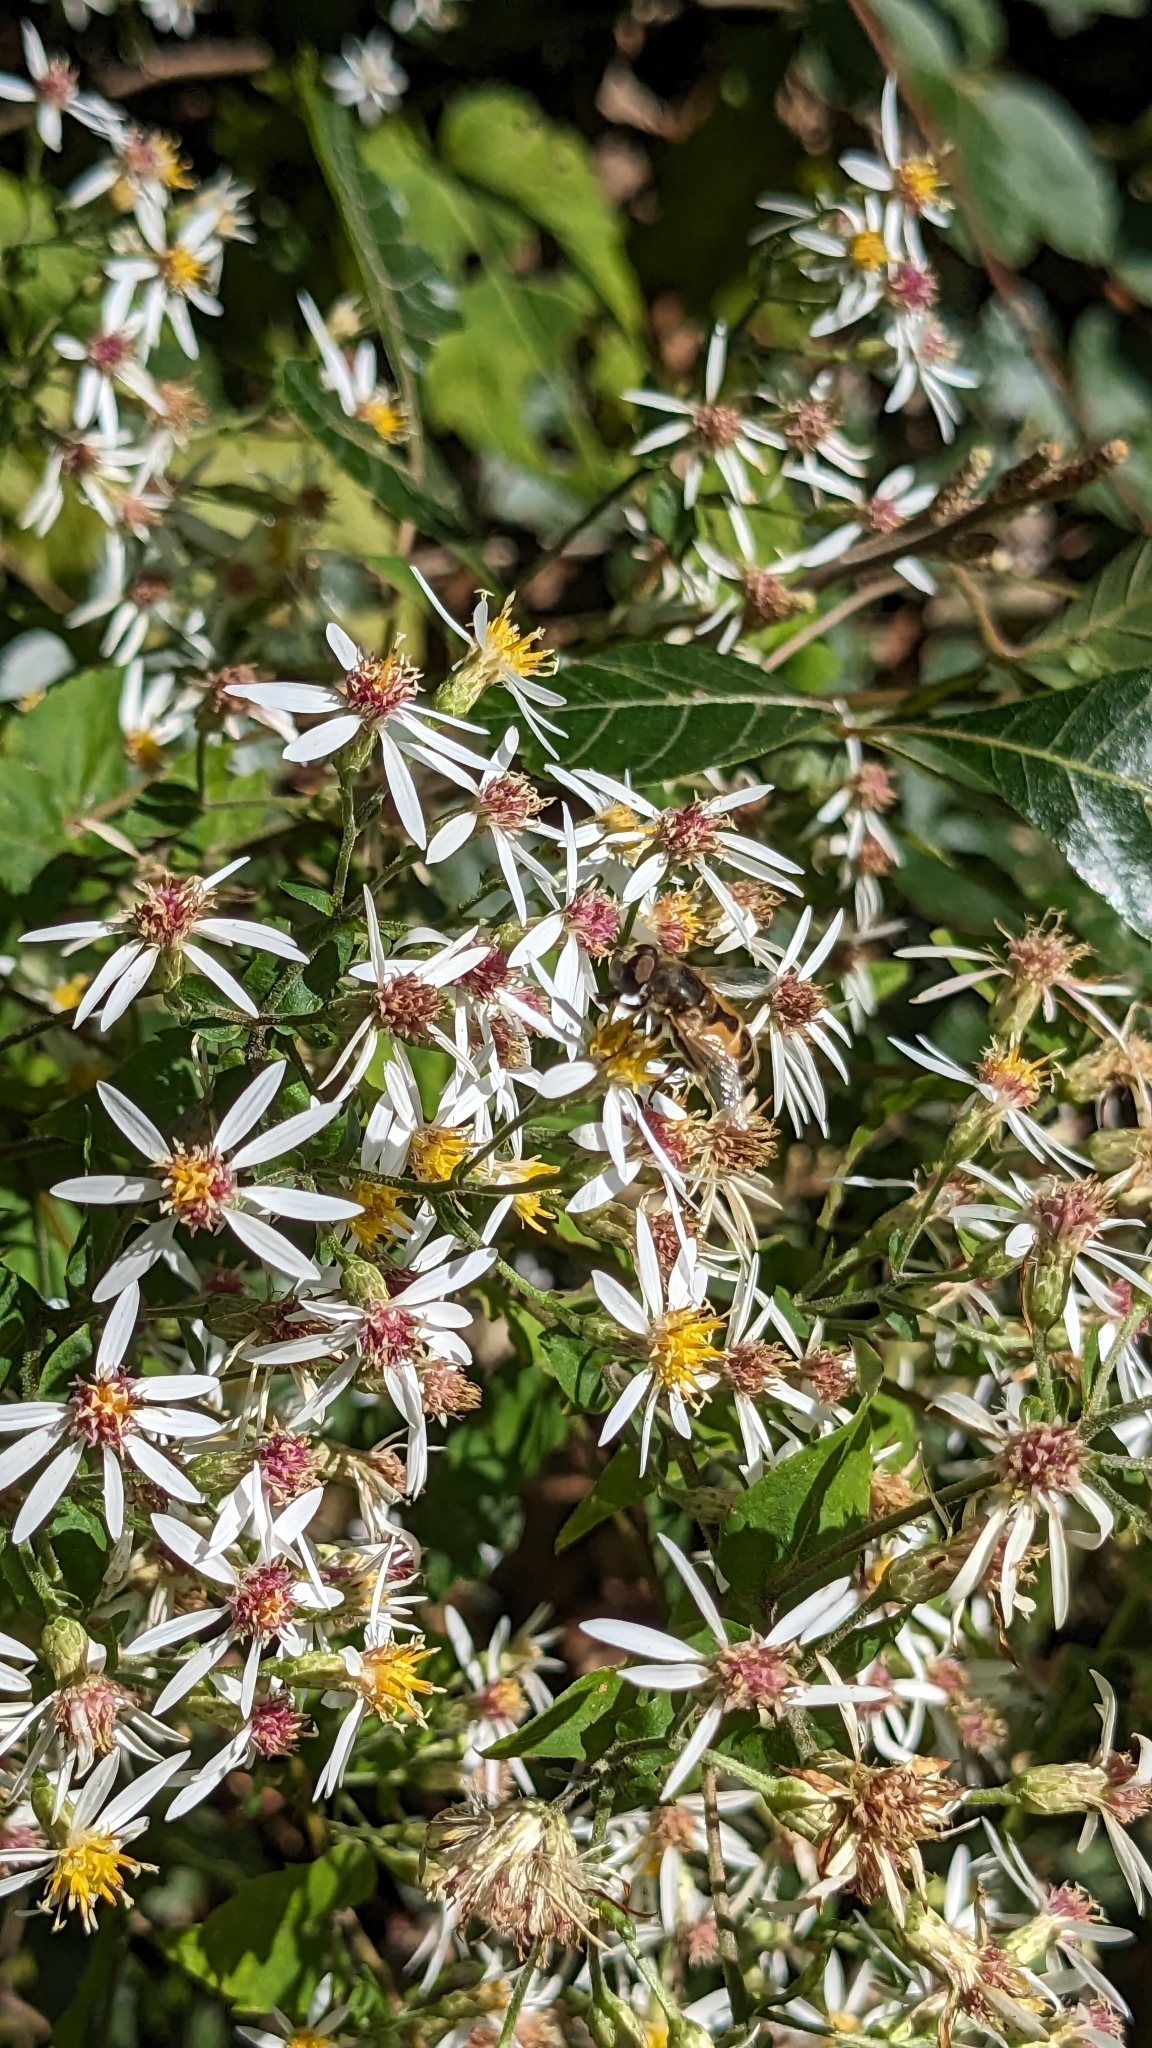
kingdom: Animalia
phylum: Arthropoda
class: Insecta
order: Diptera
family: Syrphidae
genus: Eristalis
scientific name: Eristalis arbustorum
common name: Hover fly
